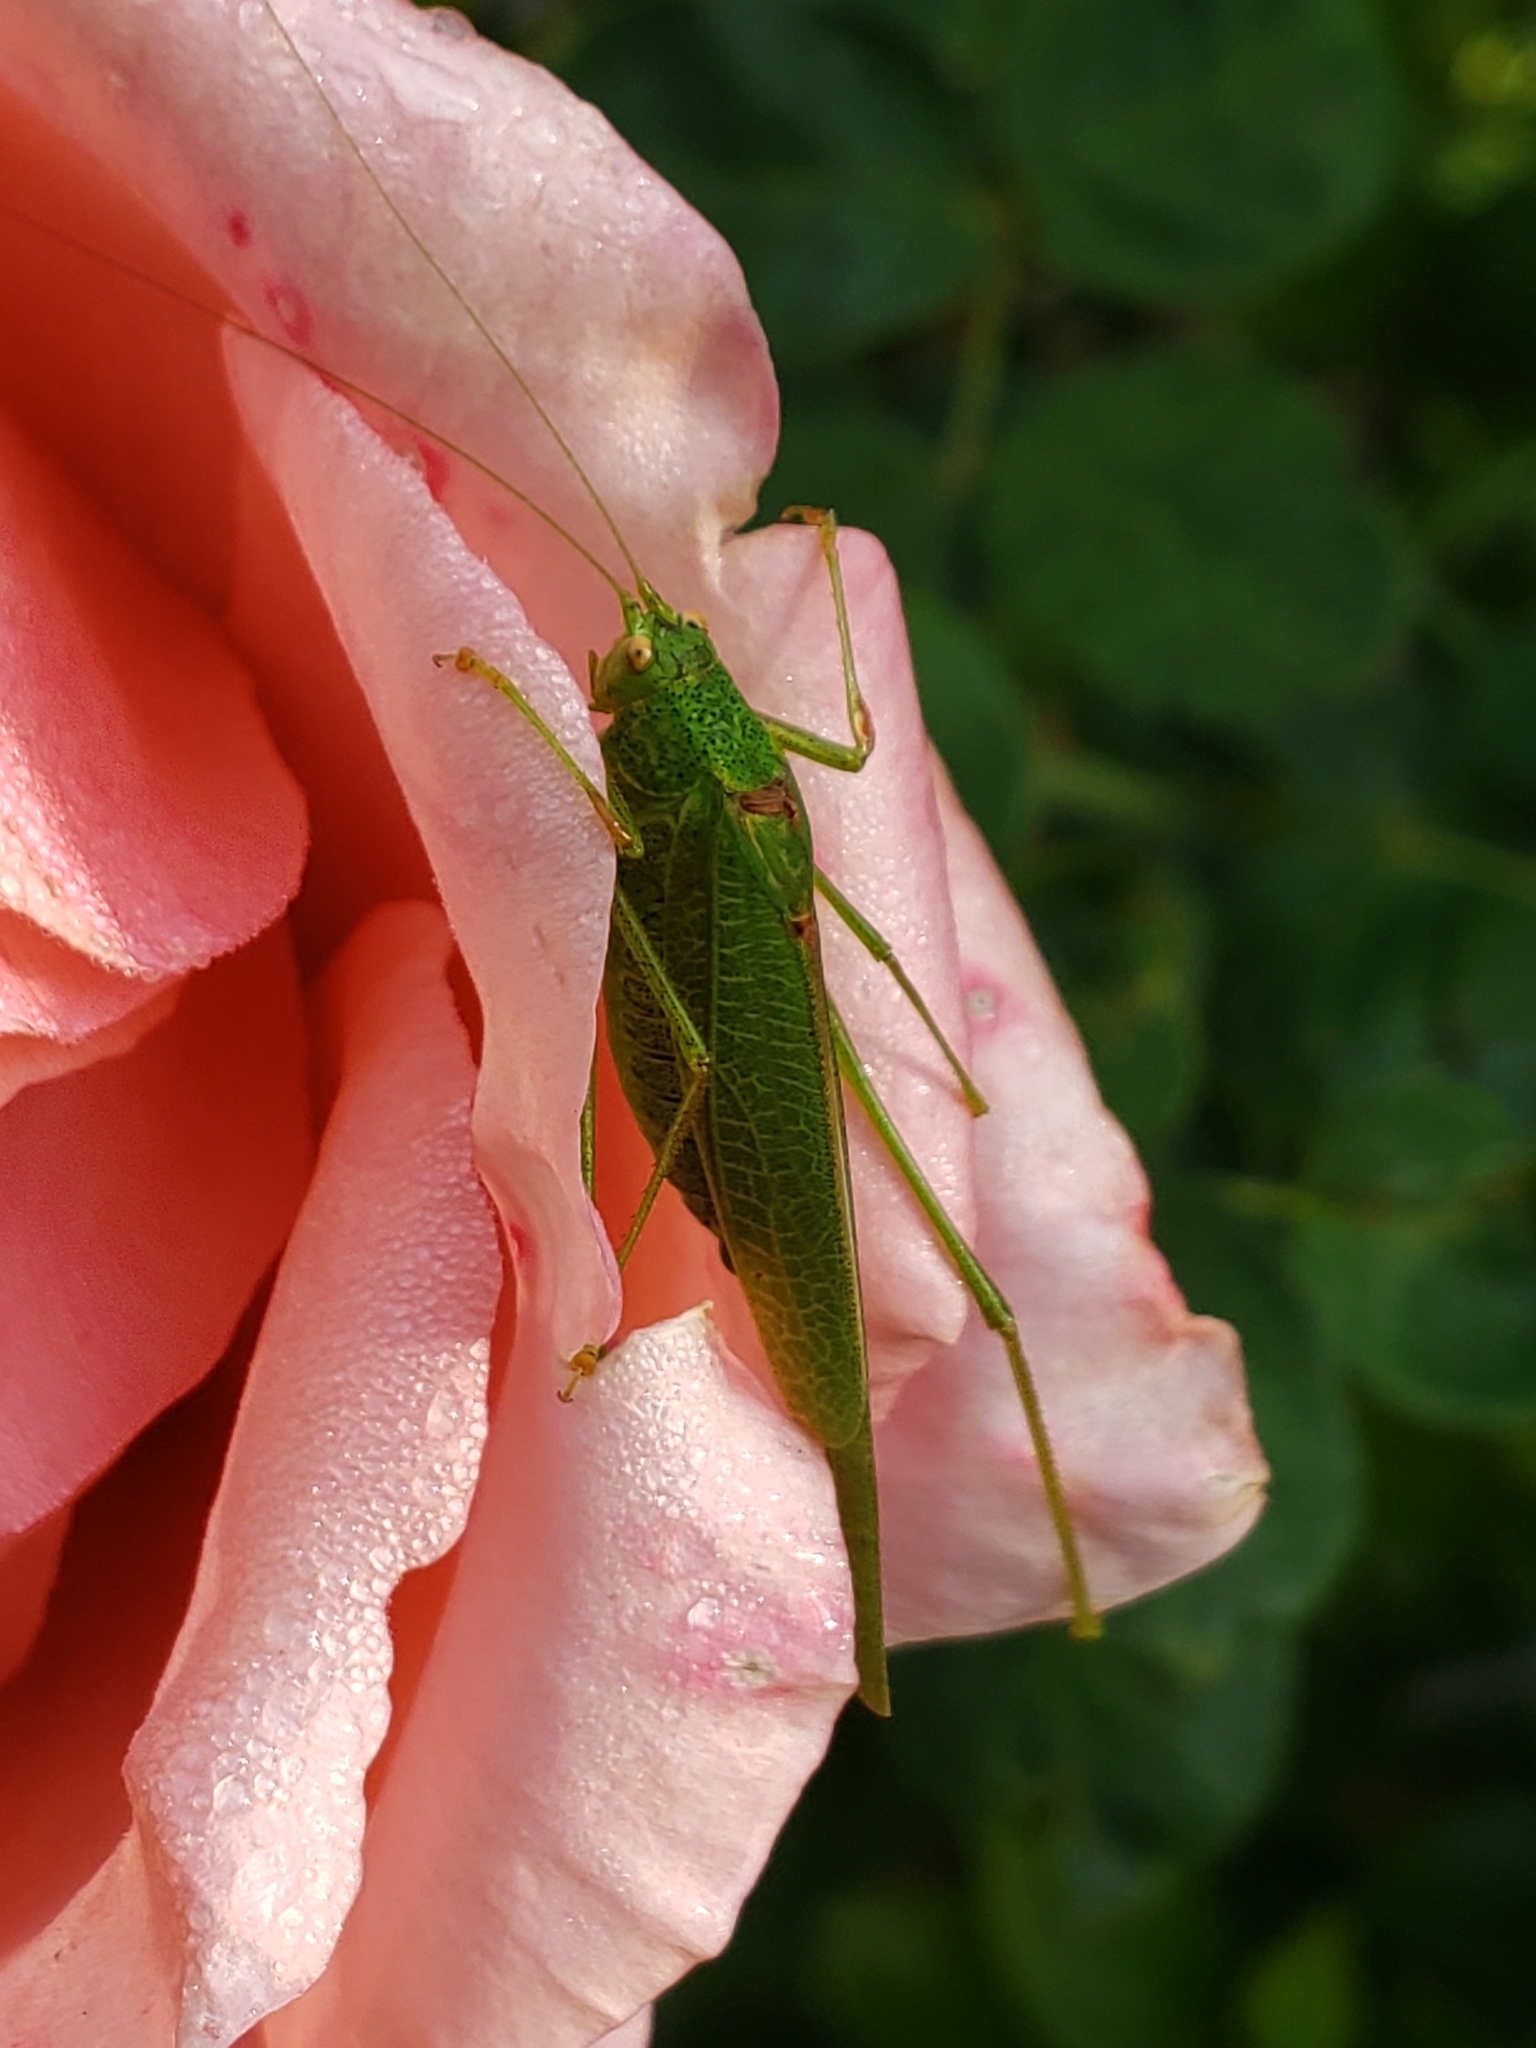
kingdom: Animalia
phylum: Arthropoda
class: Insecta
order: Orthoptera
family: Tettigoniidae
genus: Phaneroptera
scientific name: Phaneroptera nana
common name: Southern sickle bush-cricket
